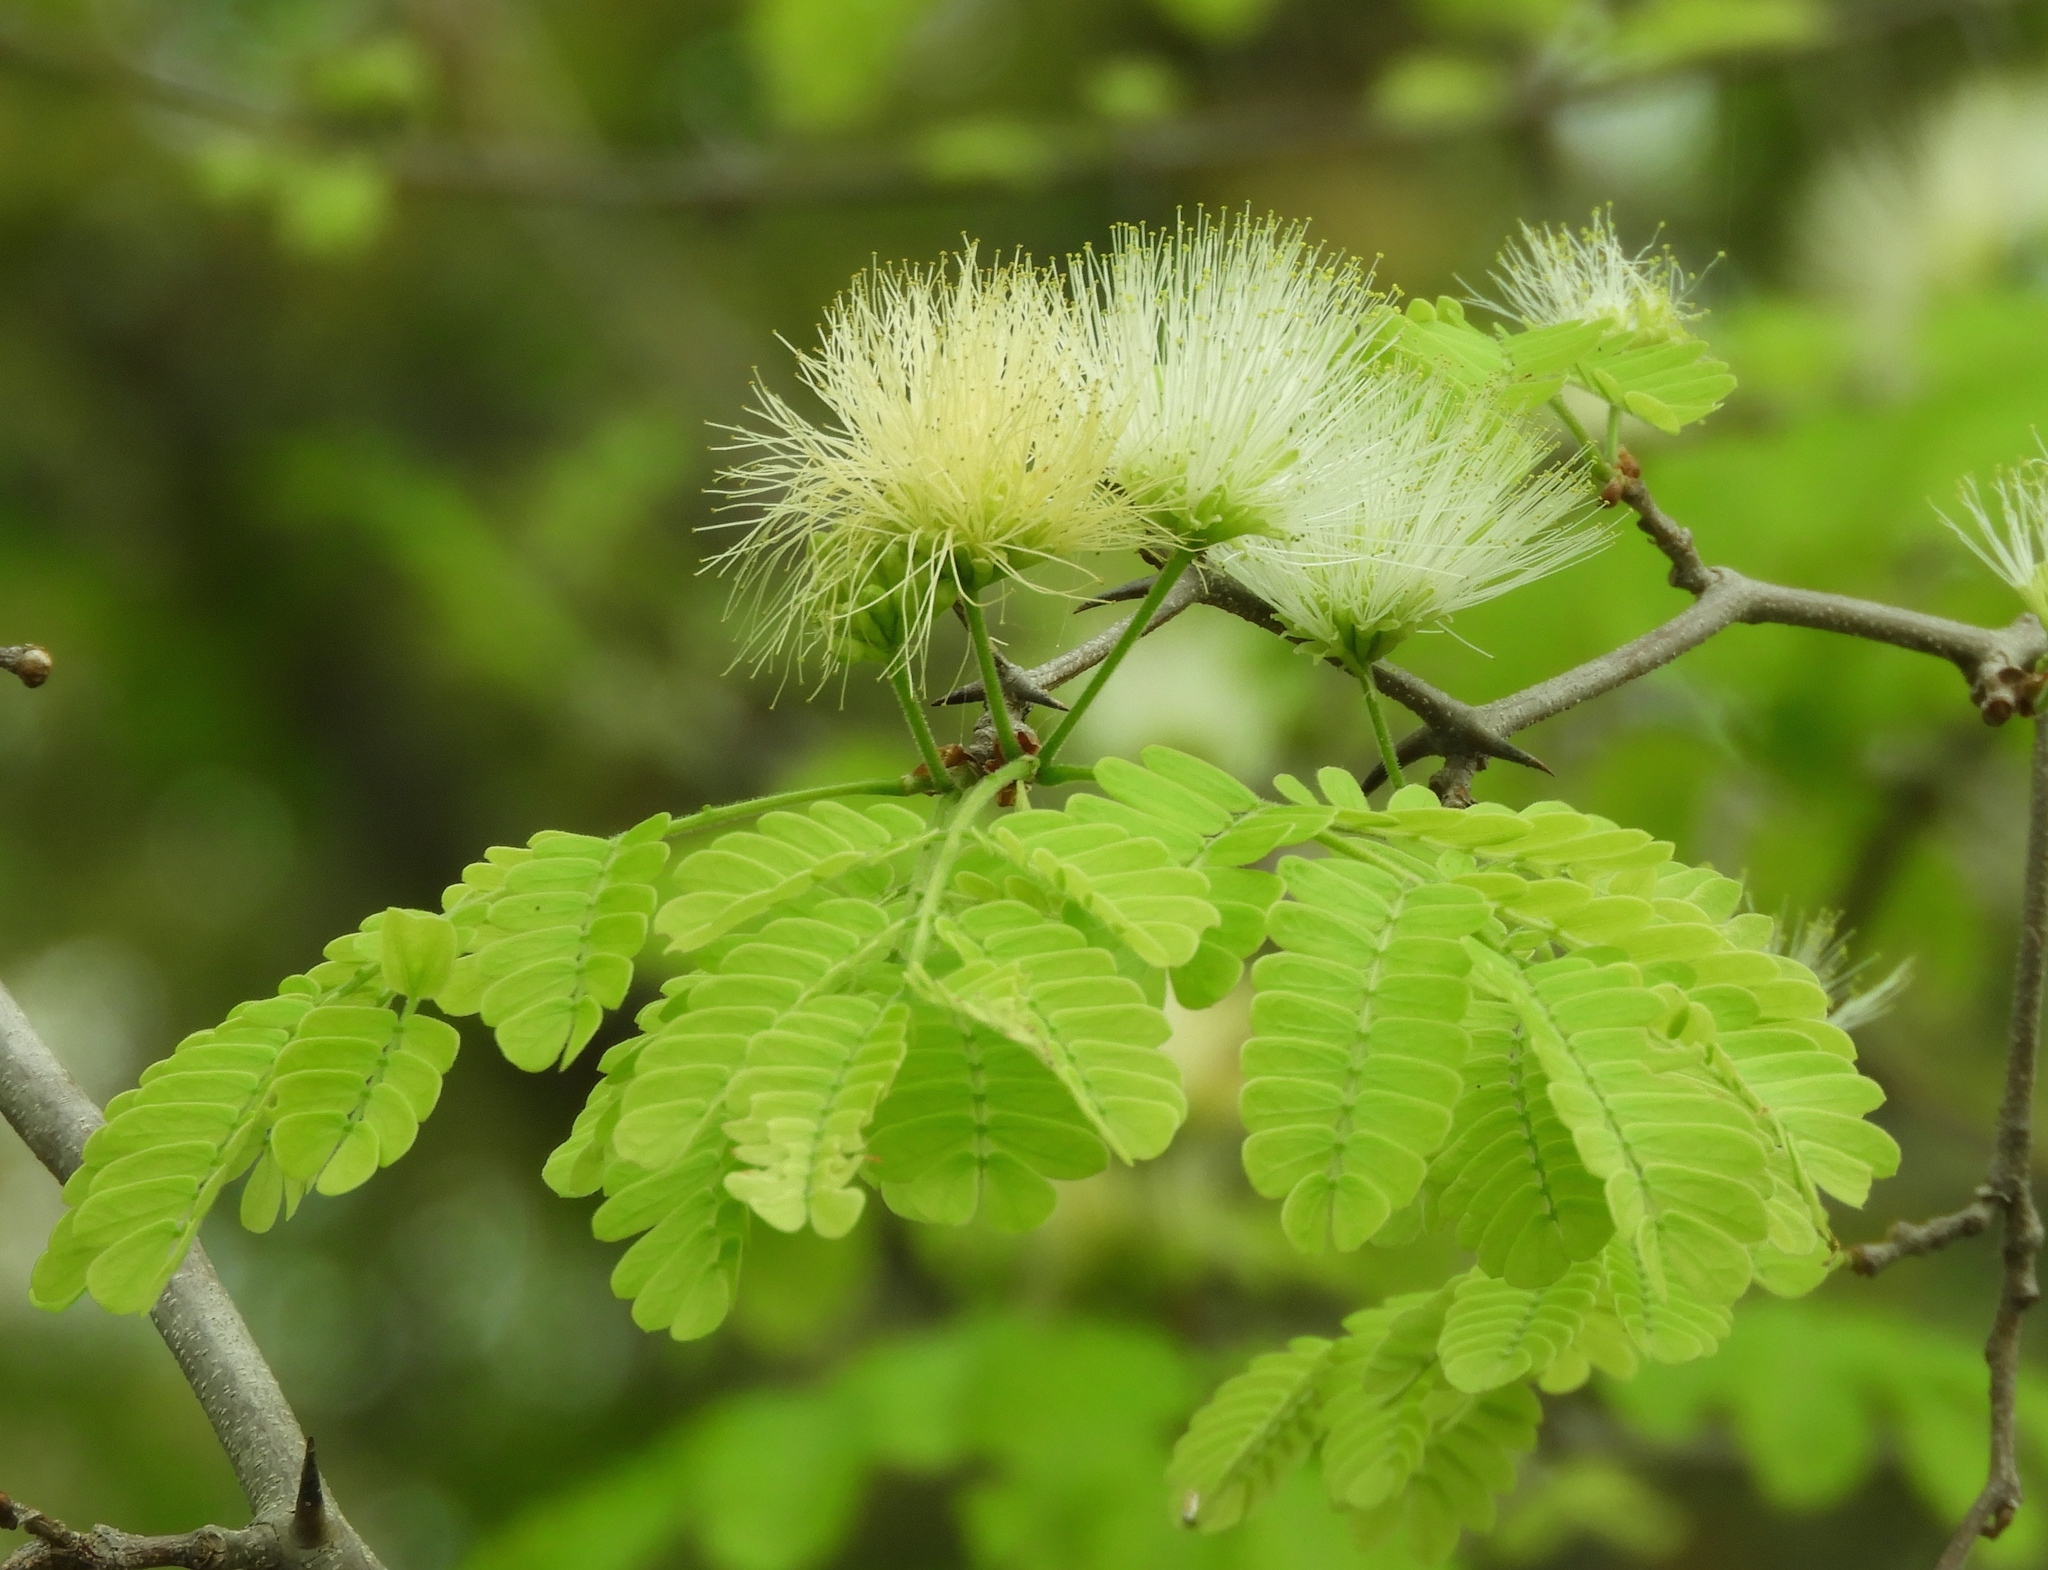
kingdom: Plantae
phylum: Tracheophyta
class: Magnoliopsida
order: Fabales
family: Fabaceae
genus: Chloroleucon
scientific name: Chloroleucon mangense
